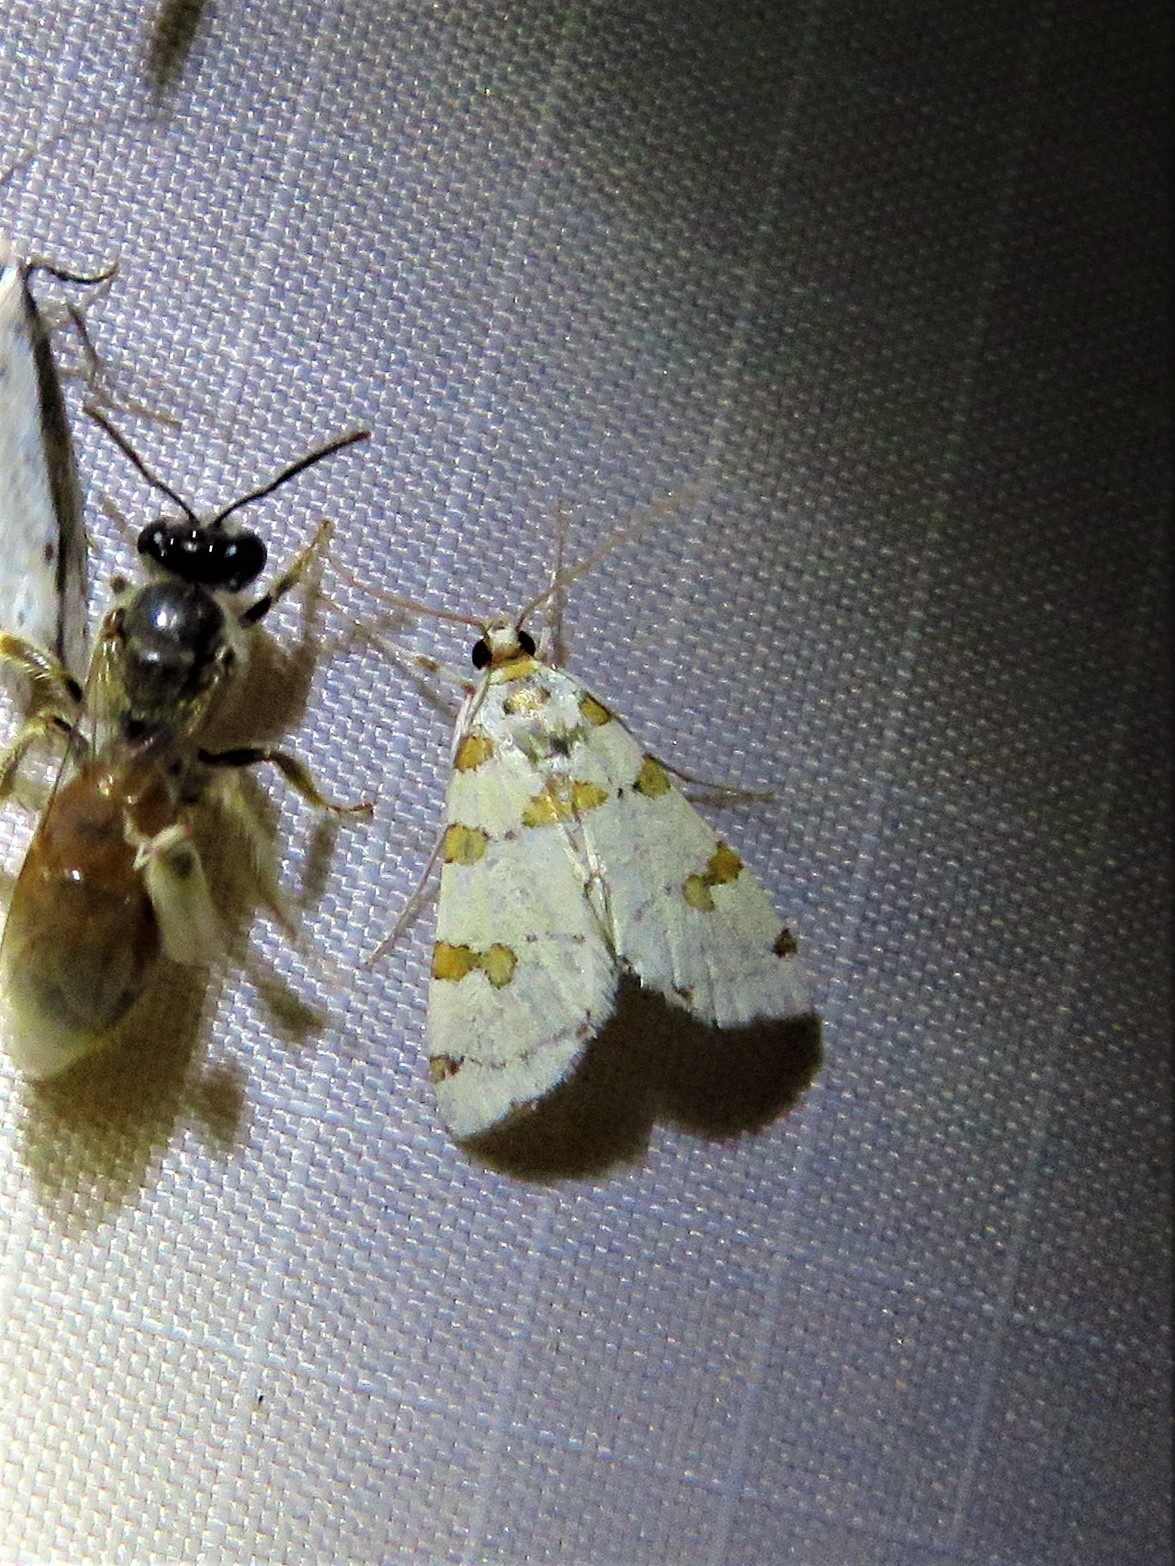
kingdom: Animalia
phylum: Arthropoda
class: Insecta
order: Lepidoptera
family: Crambidae
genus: Conchylodes
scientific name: Conchylodes
